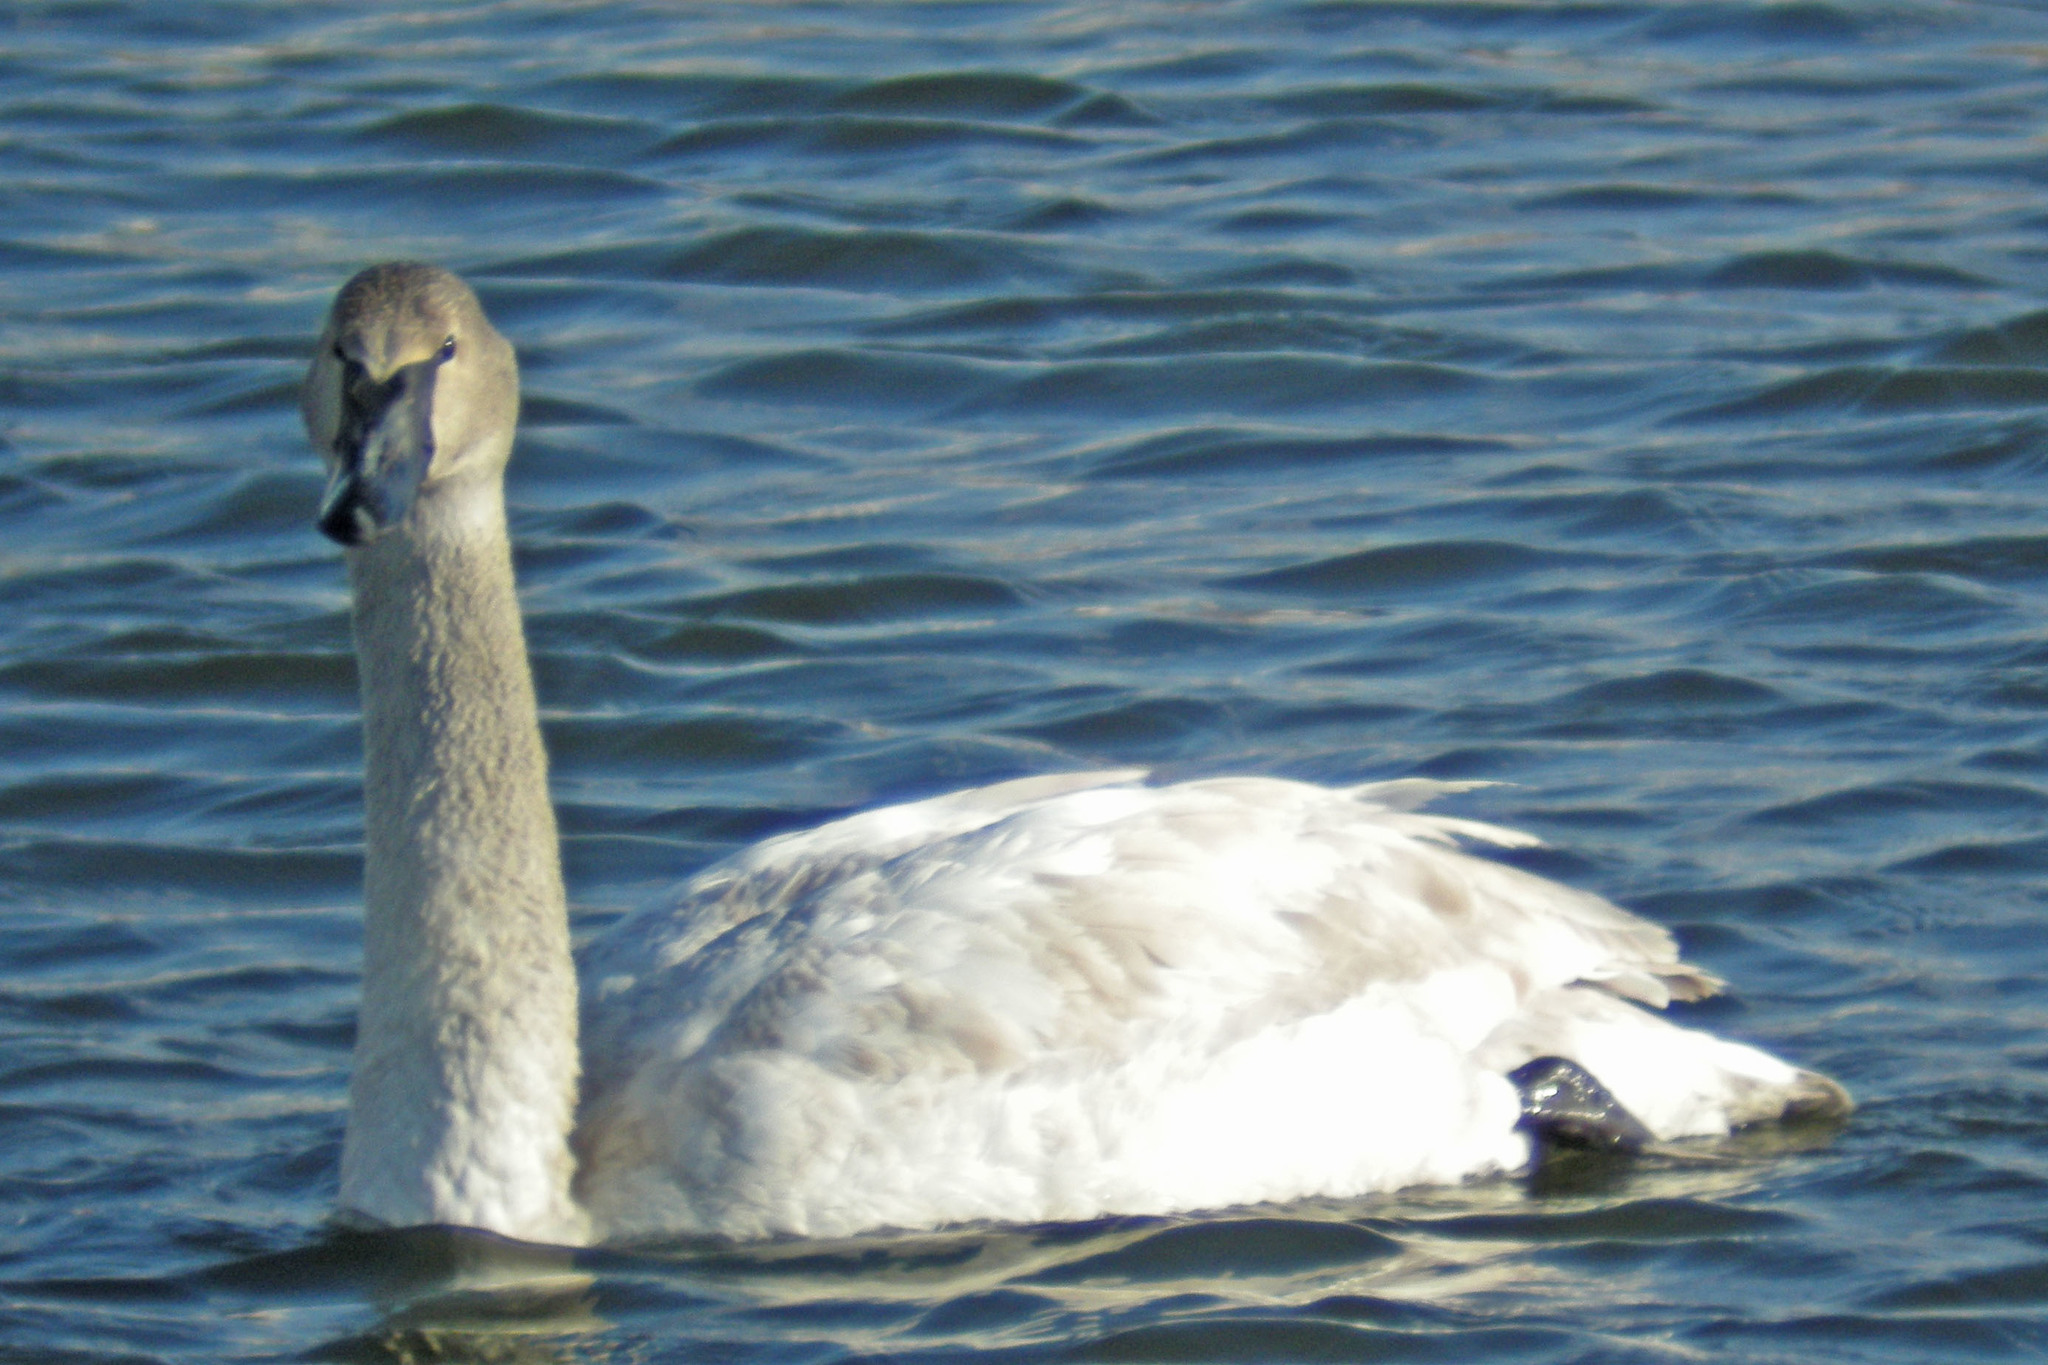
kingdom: Animalia
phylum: Chordata
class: Aves
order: Anseriformes
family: Anatidae
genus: Cygnus
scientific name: Cygnus buccinator
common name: Trumpeter swan
